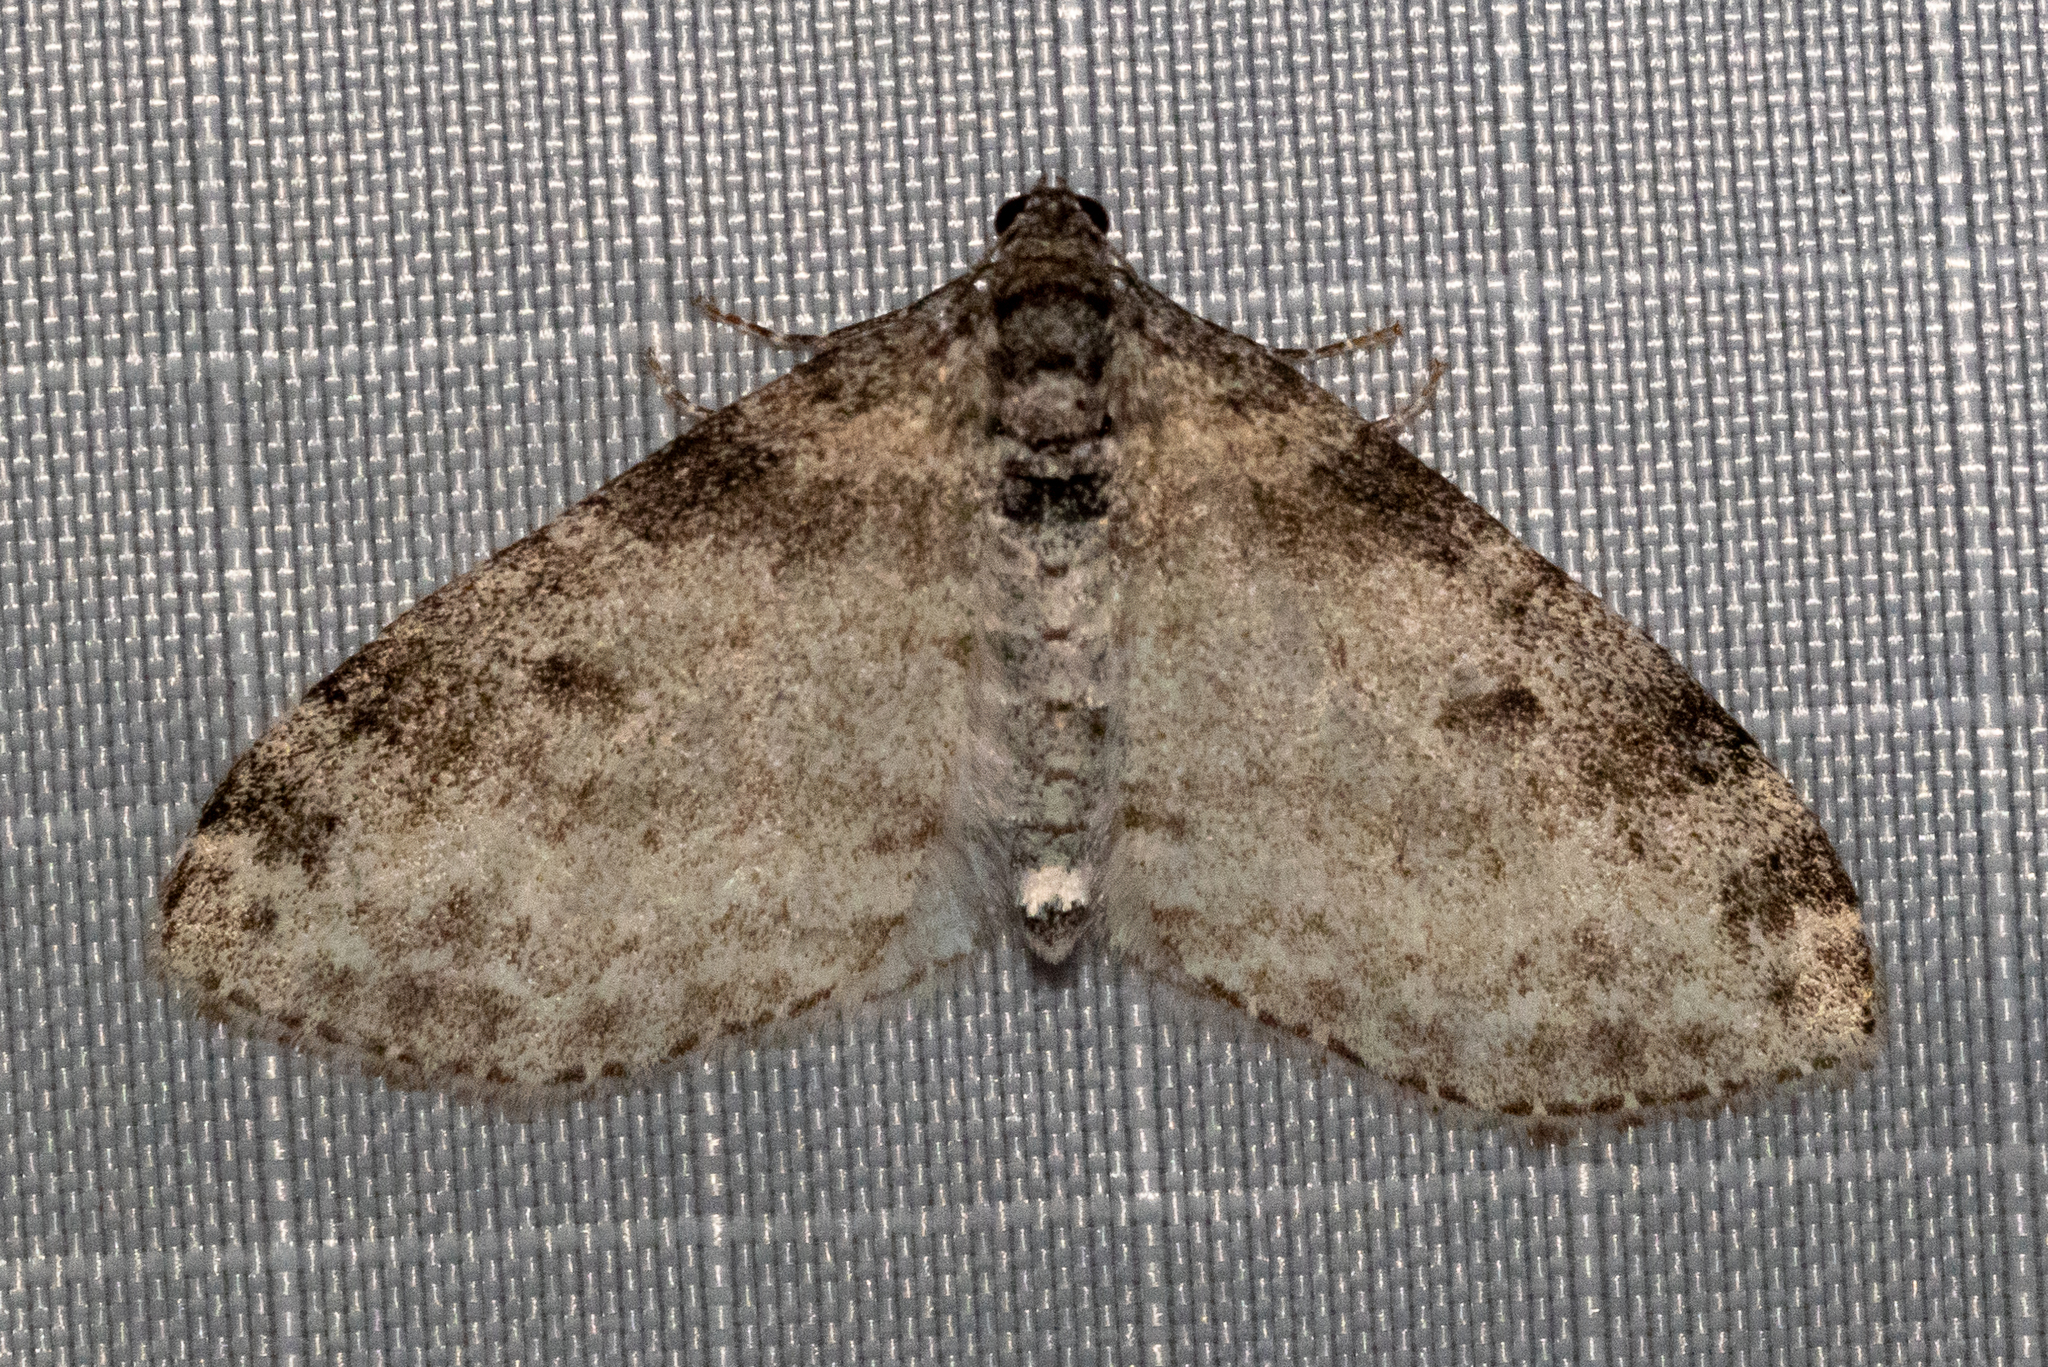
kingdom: Animalia
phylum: Arthropoda
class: Insecta
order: Lepidoptera
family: Geometridae
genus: Lobophora
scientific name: Lobophora nivigerata
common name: Powdered bigwing
